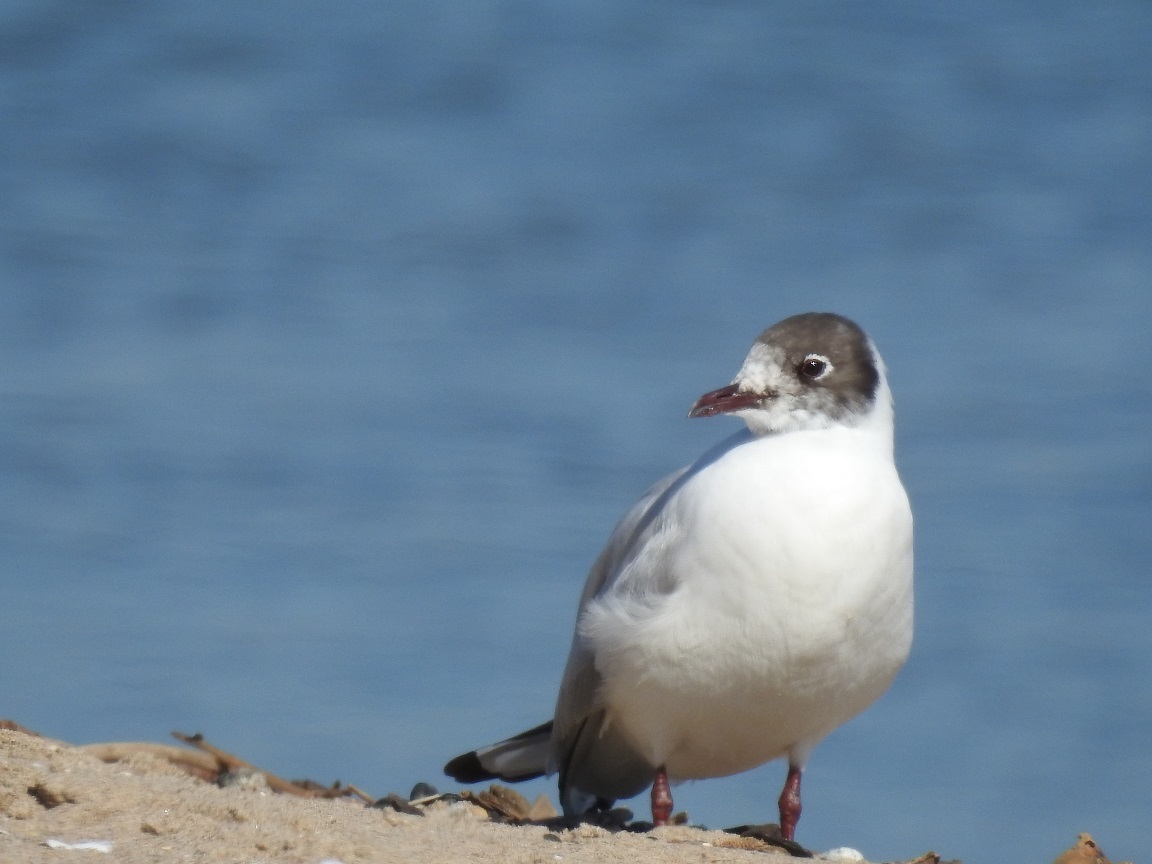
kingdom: Animalia
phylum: Chordata
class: Aves
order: Charadriiformes
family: Laridae
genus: Chroicocephalus
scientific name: Chroicocephalus ridibundus
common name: Black-headed gull
